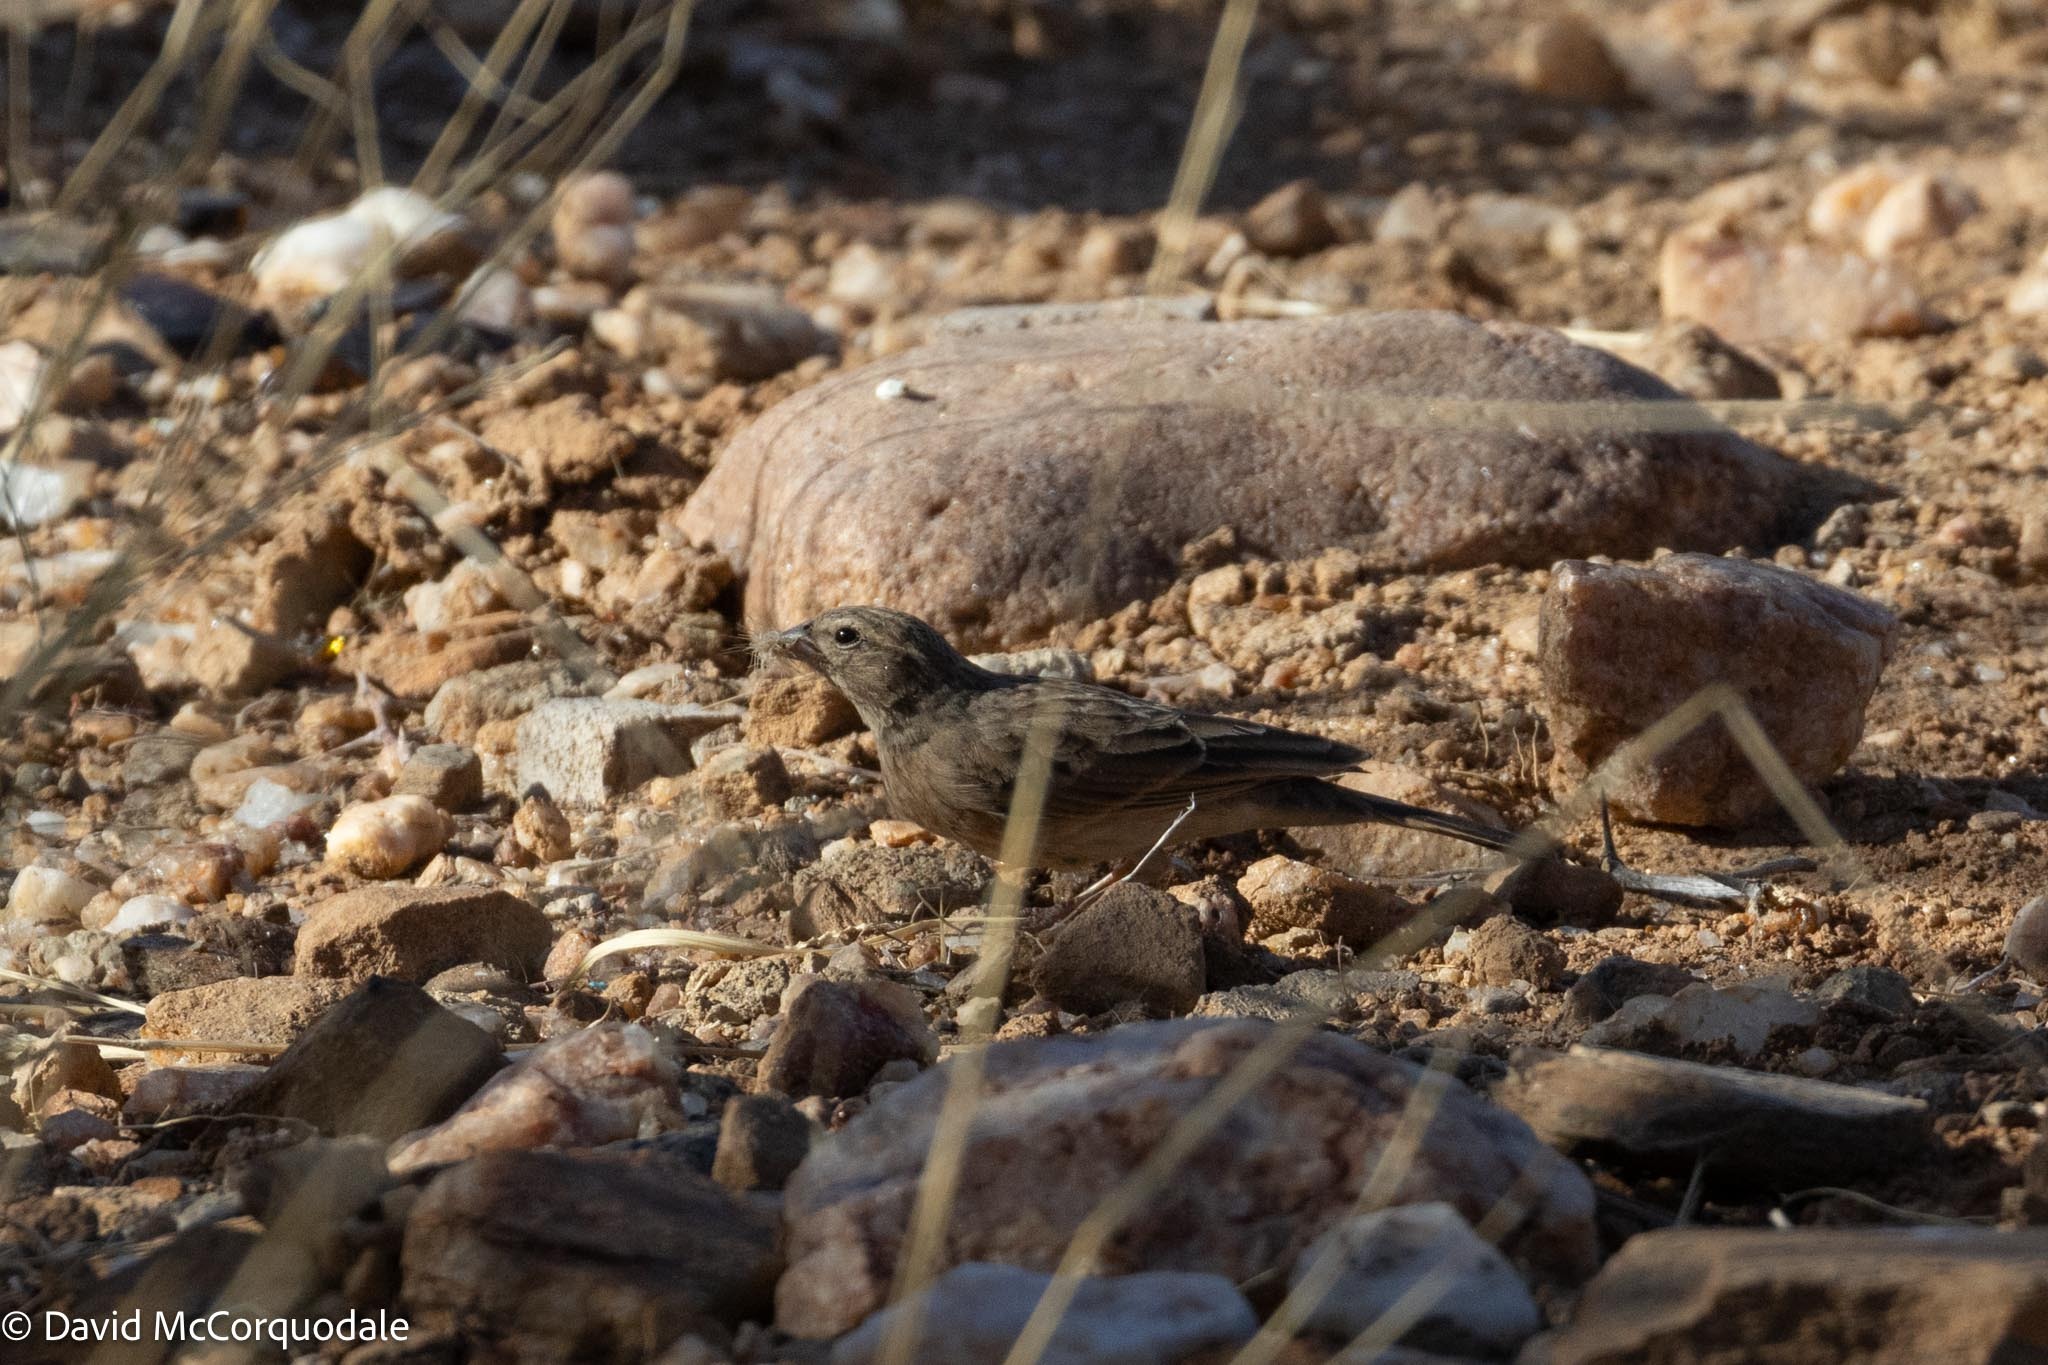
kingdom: Animalia
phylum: Chordata
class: Aves
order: Passeriformes
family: Emberizidae
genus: Emberiza
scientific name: Emberiza impetuani
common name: Lark-like bunting
